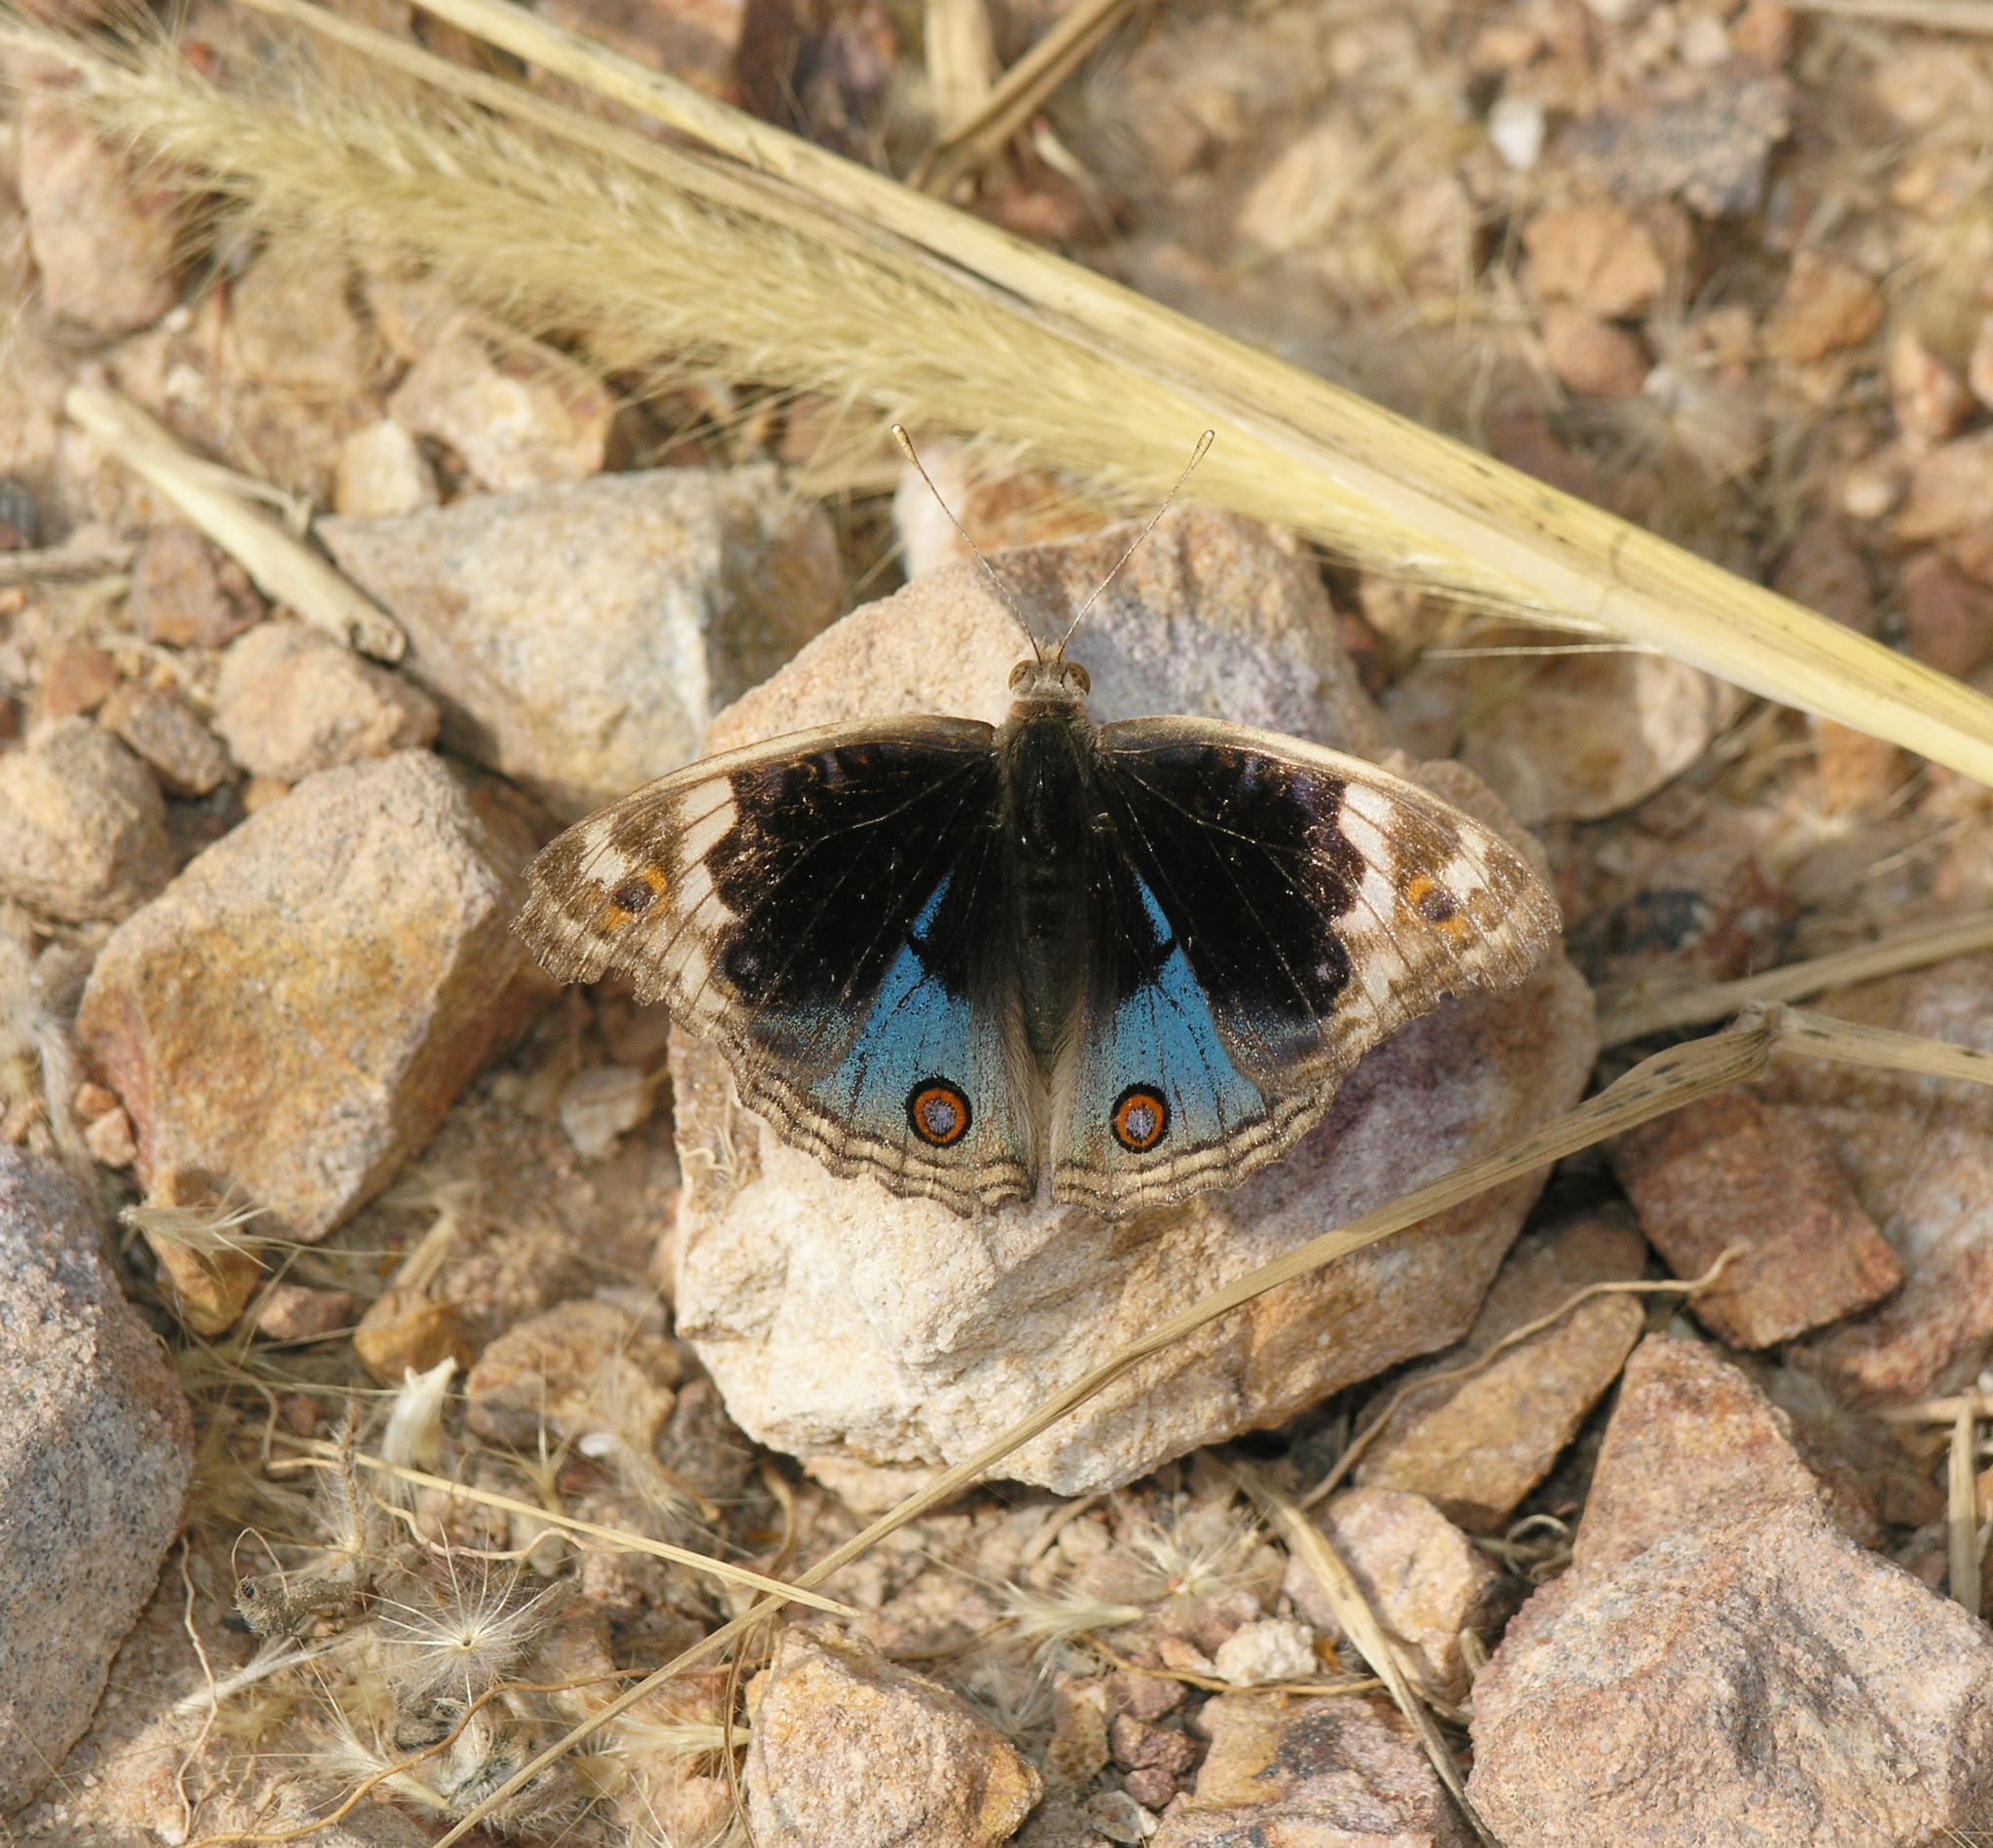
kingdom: Animalia
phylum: Arthropoda
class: Insecta
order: Lepidoptera
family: Nymphalidae
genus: Junonia
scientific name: Junonia orithya
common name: Blue pansy
